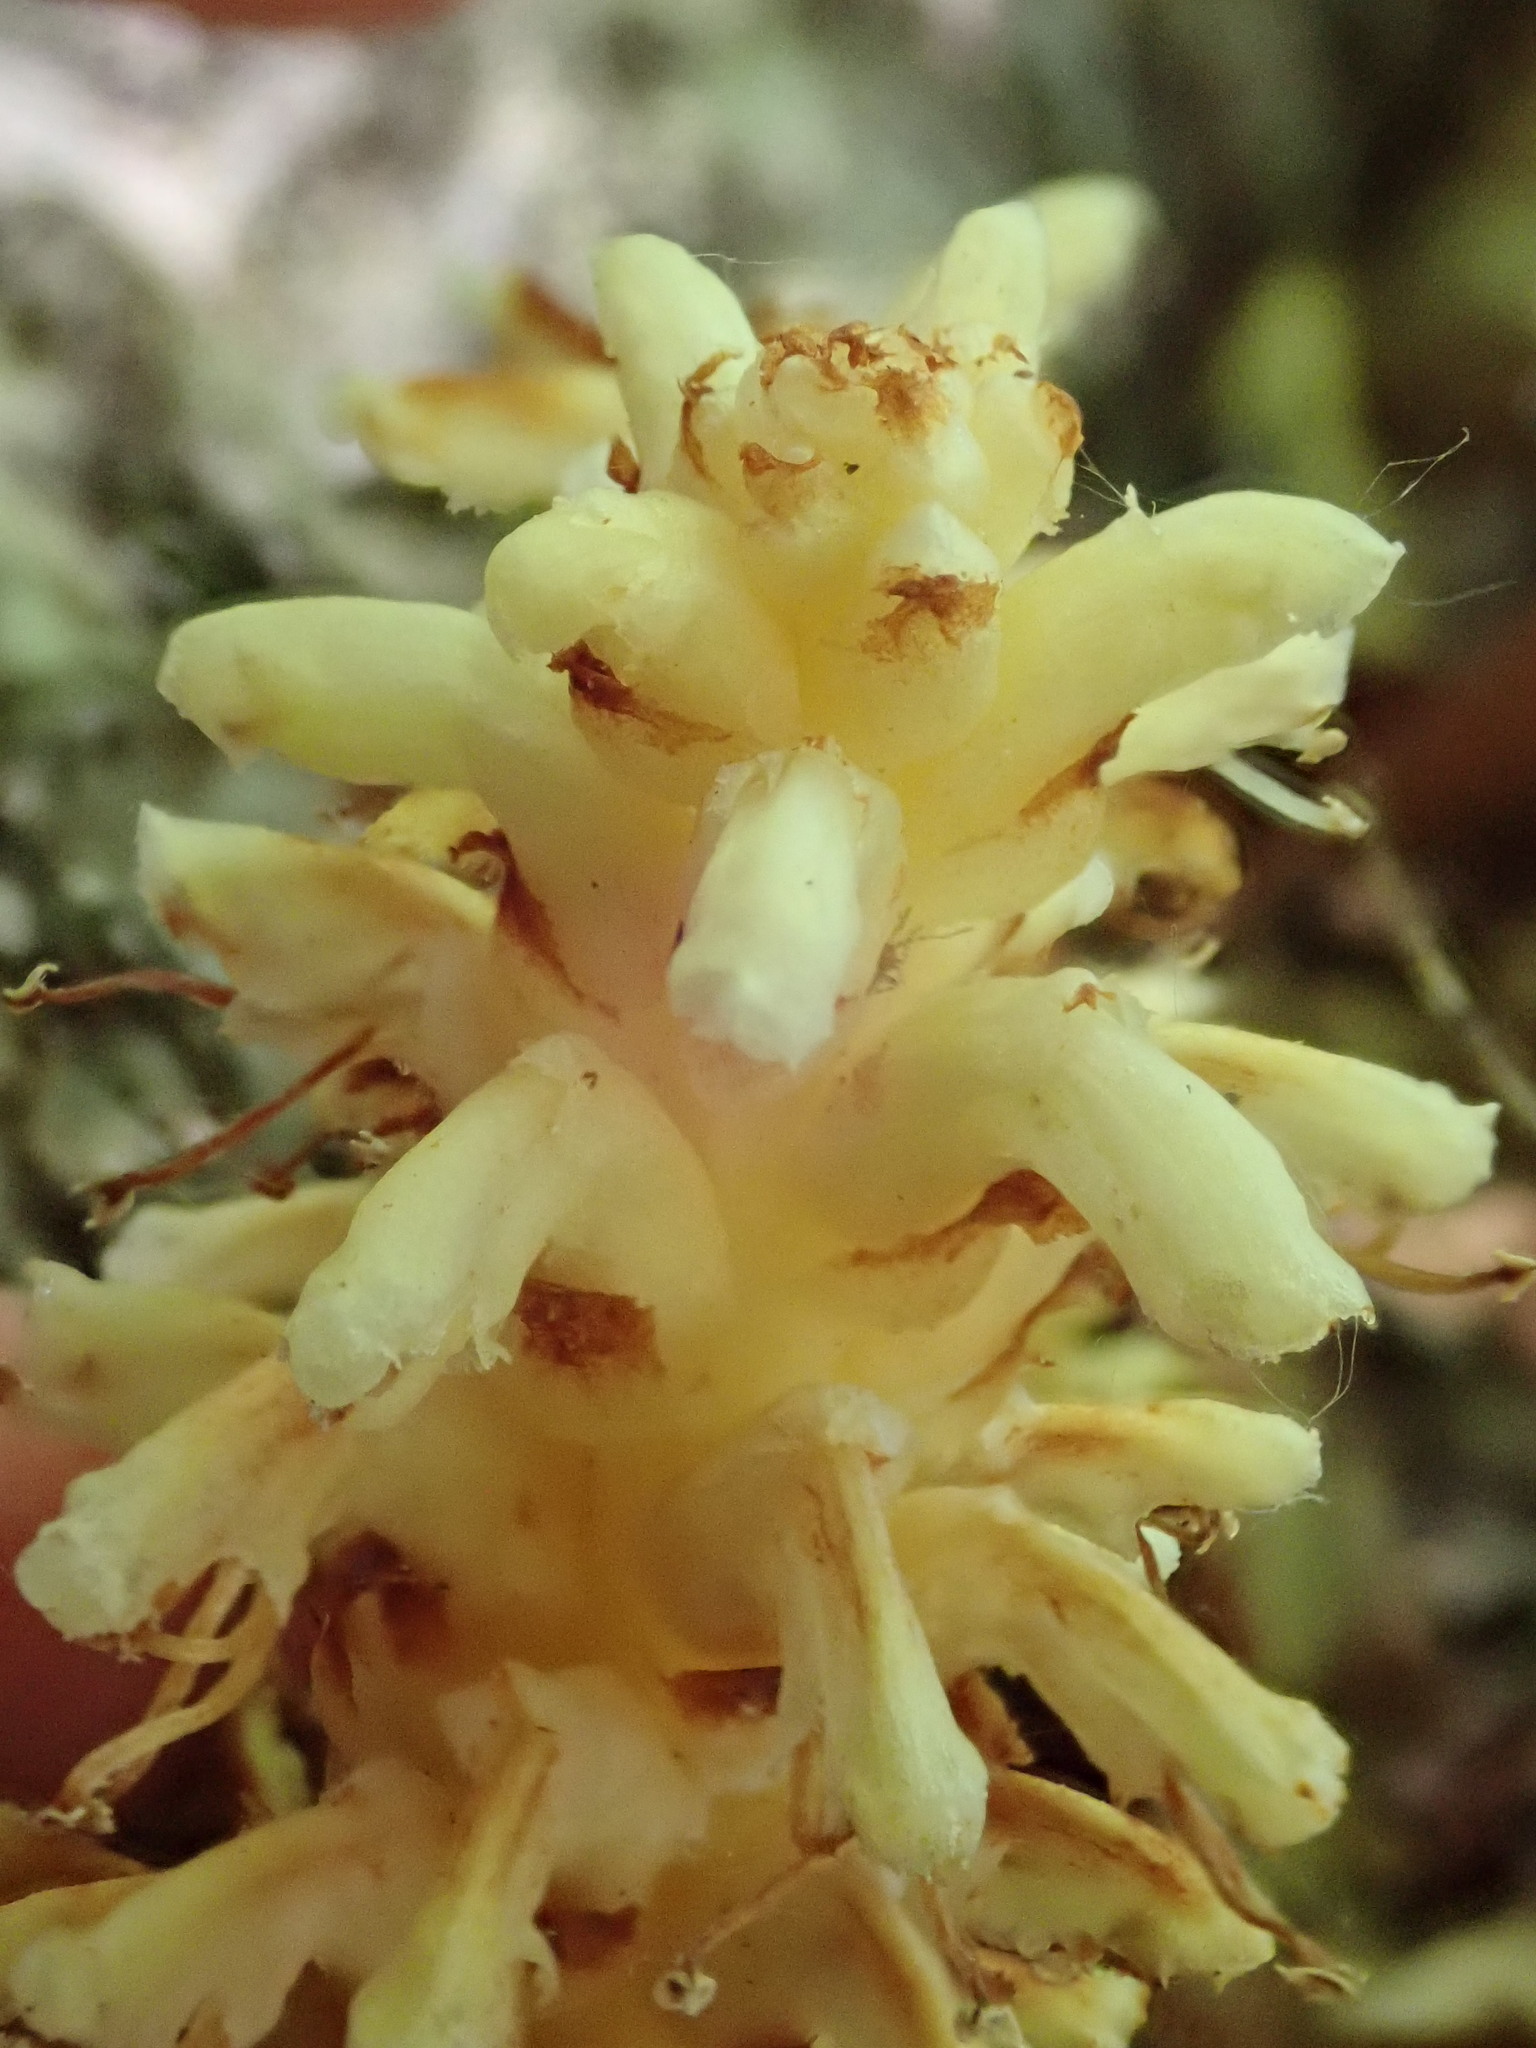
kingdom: Plantae
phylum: Tracheophyta
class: Magnoliopsida
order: Lamiales
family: Orobanchaceae
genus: Conopholis
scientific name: Conopholis americana
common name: American cancer-root
